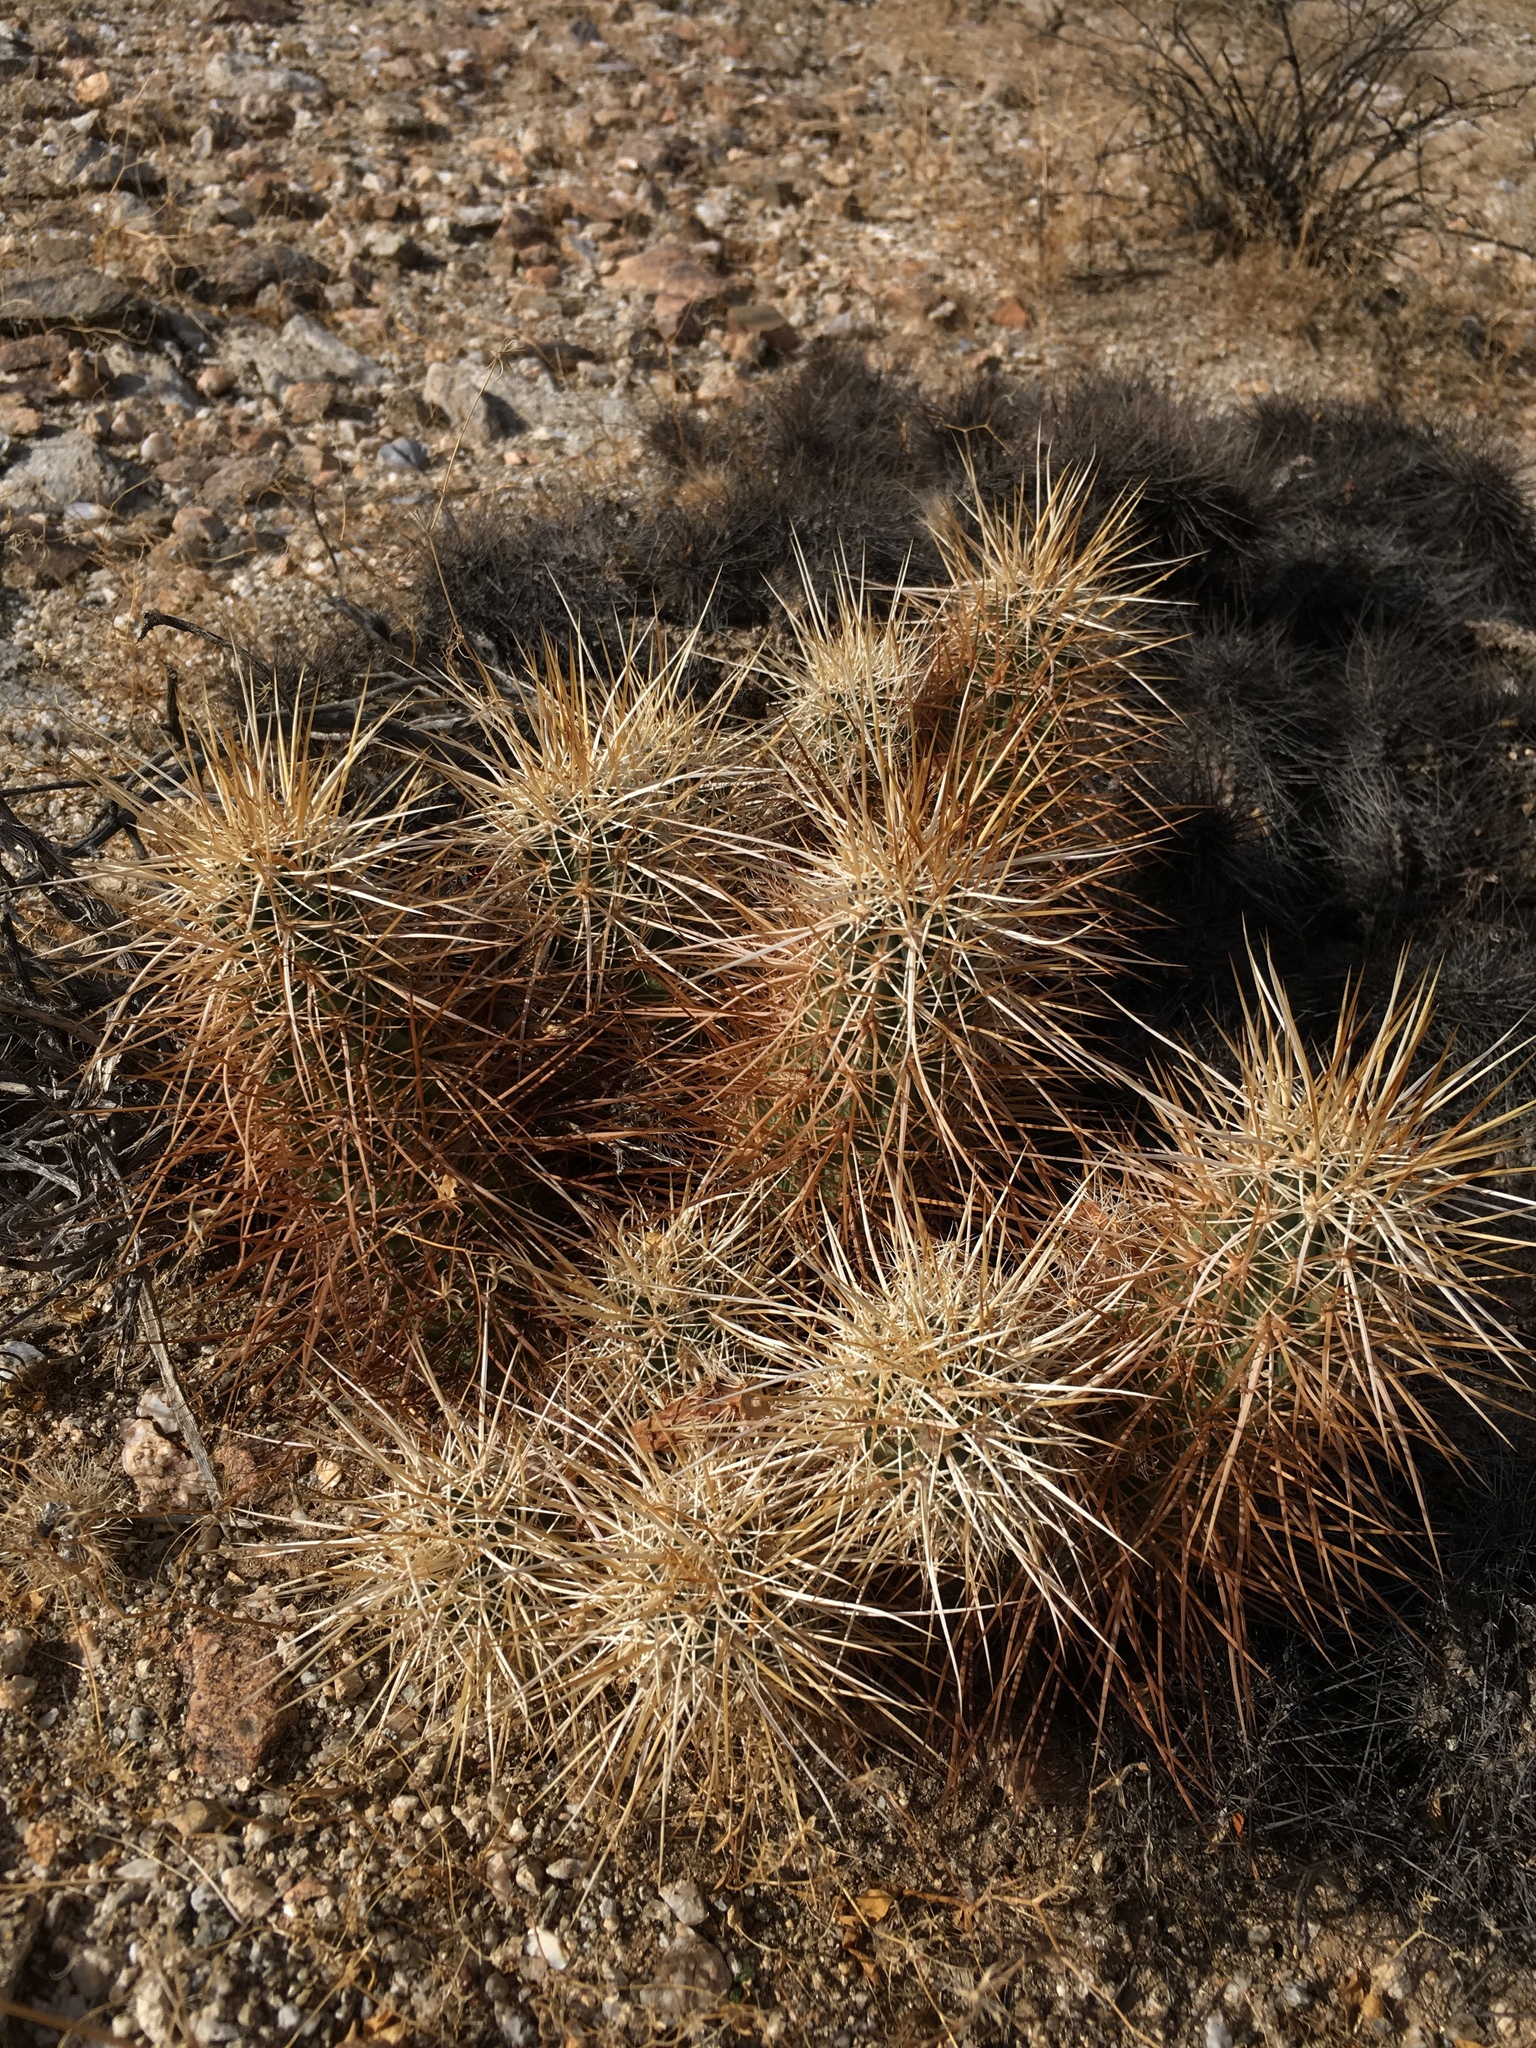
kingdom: Plantae
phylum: Tracheophyta
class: Magnoliopsida
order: Caryophyllales
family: Cactaceae
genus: Echinocereus
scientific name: Echinocereus engelmannii
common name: Engelmann's hedgehog cactus
